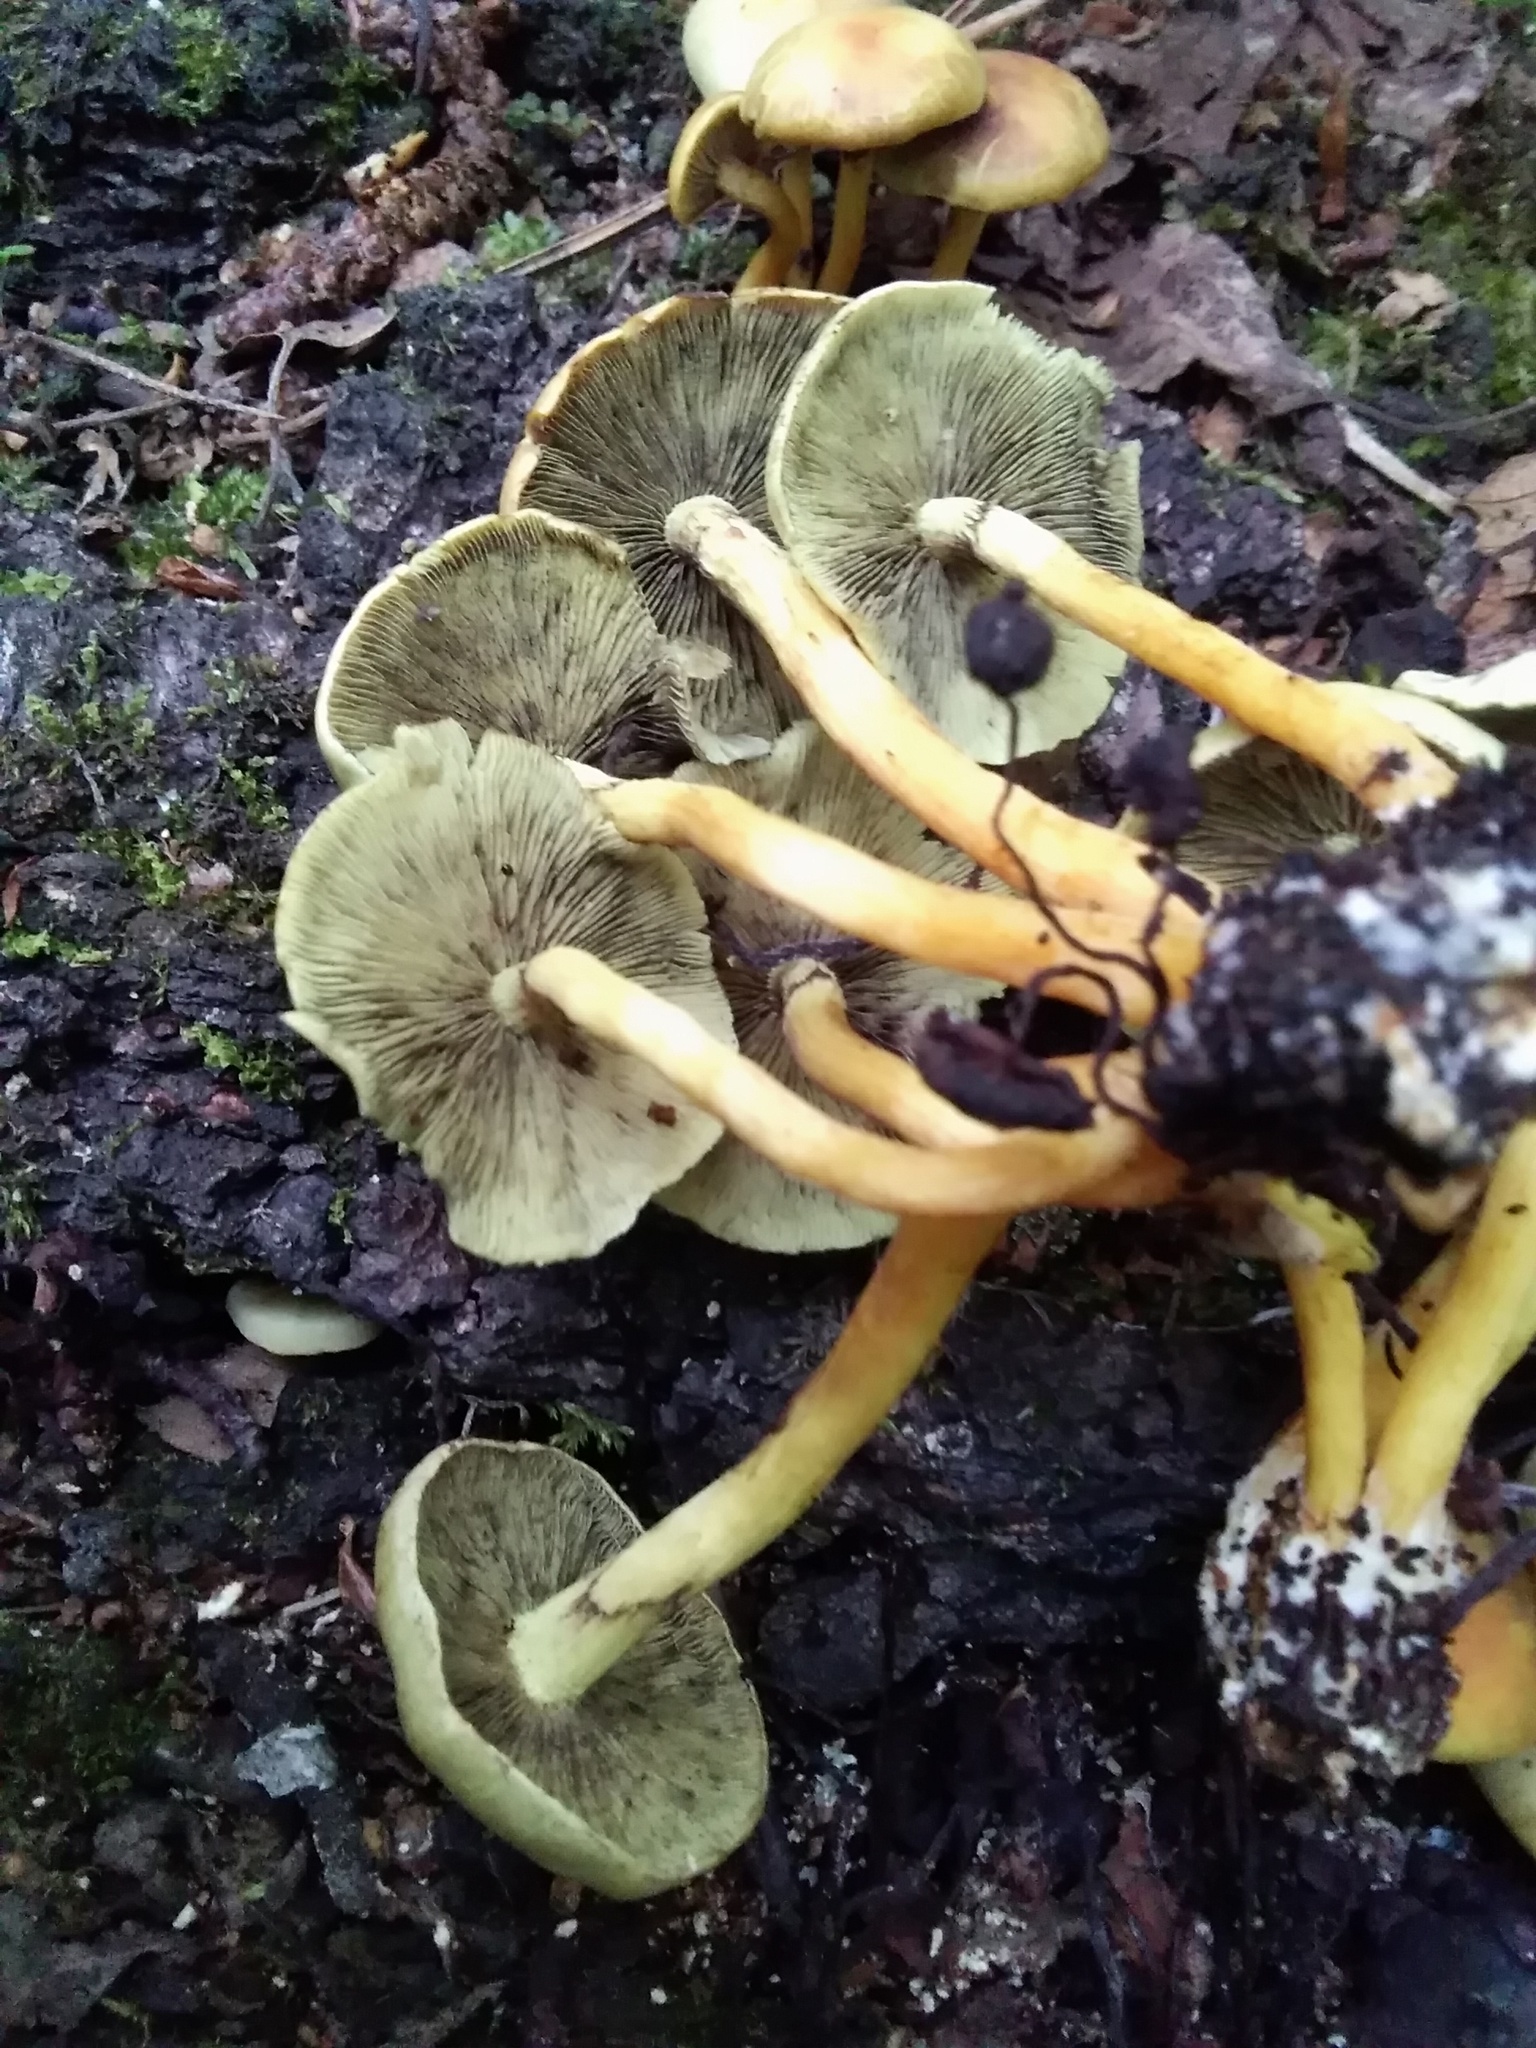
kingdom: Fungi
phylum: Basidiomycota
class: Agaricomycetes
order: Agaricales
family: Strophariaceae
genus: Hypholoma
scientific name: Hypholoma fasciculare
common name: Sulphur tuft
